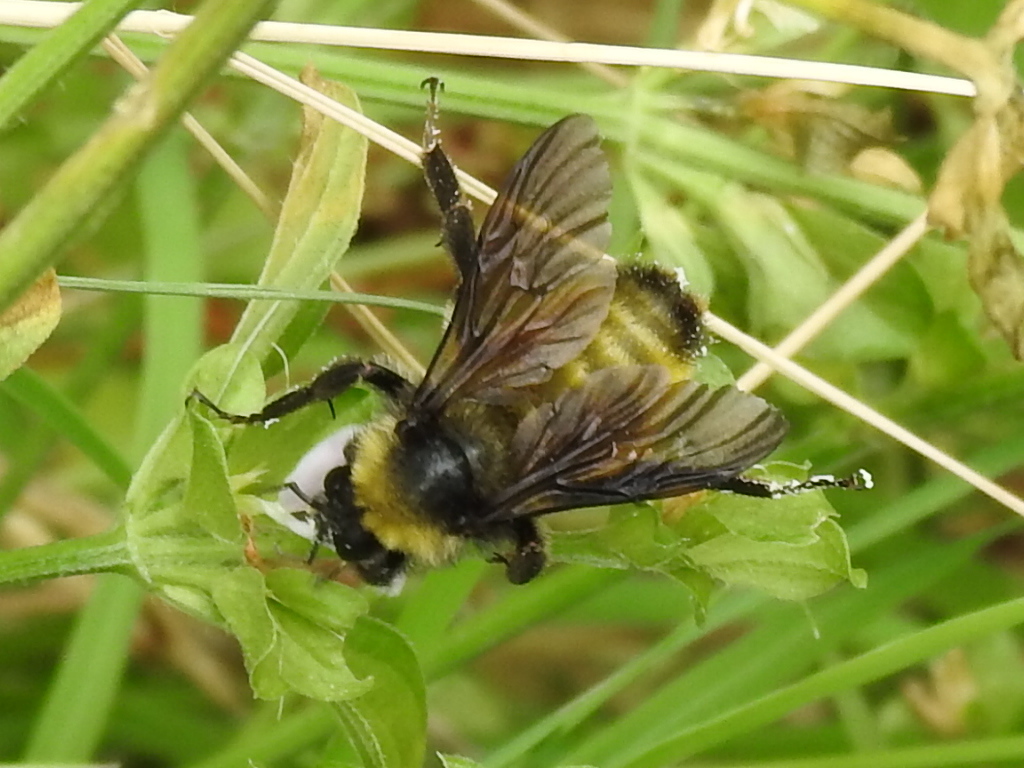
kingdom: Animalia
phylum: Arthropoda
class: Insecta
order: Hymenoptera
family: Apidae
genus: Bombus
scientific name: Bombus pensylvanicus
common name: Bumble bee
